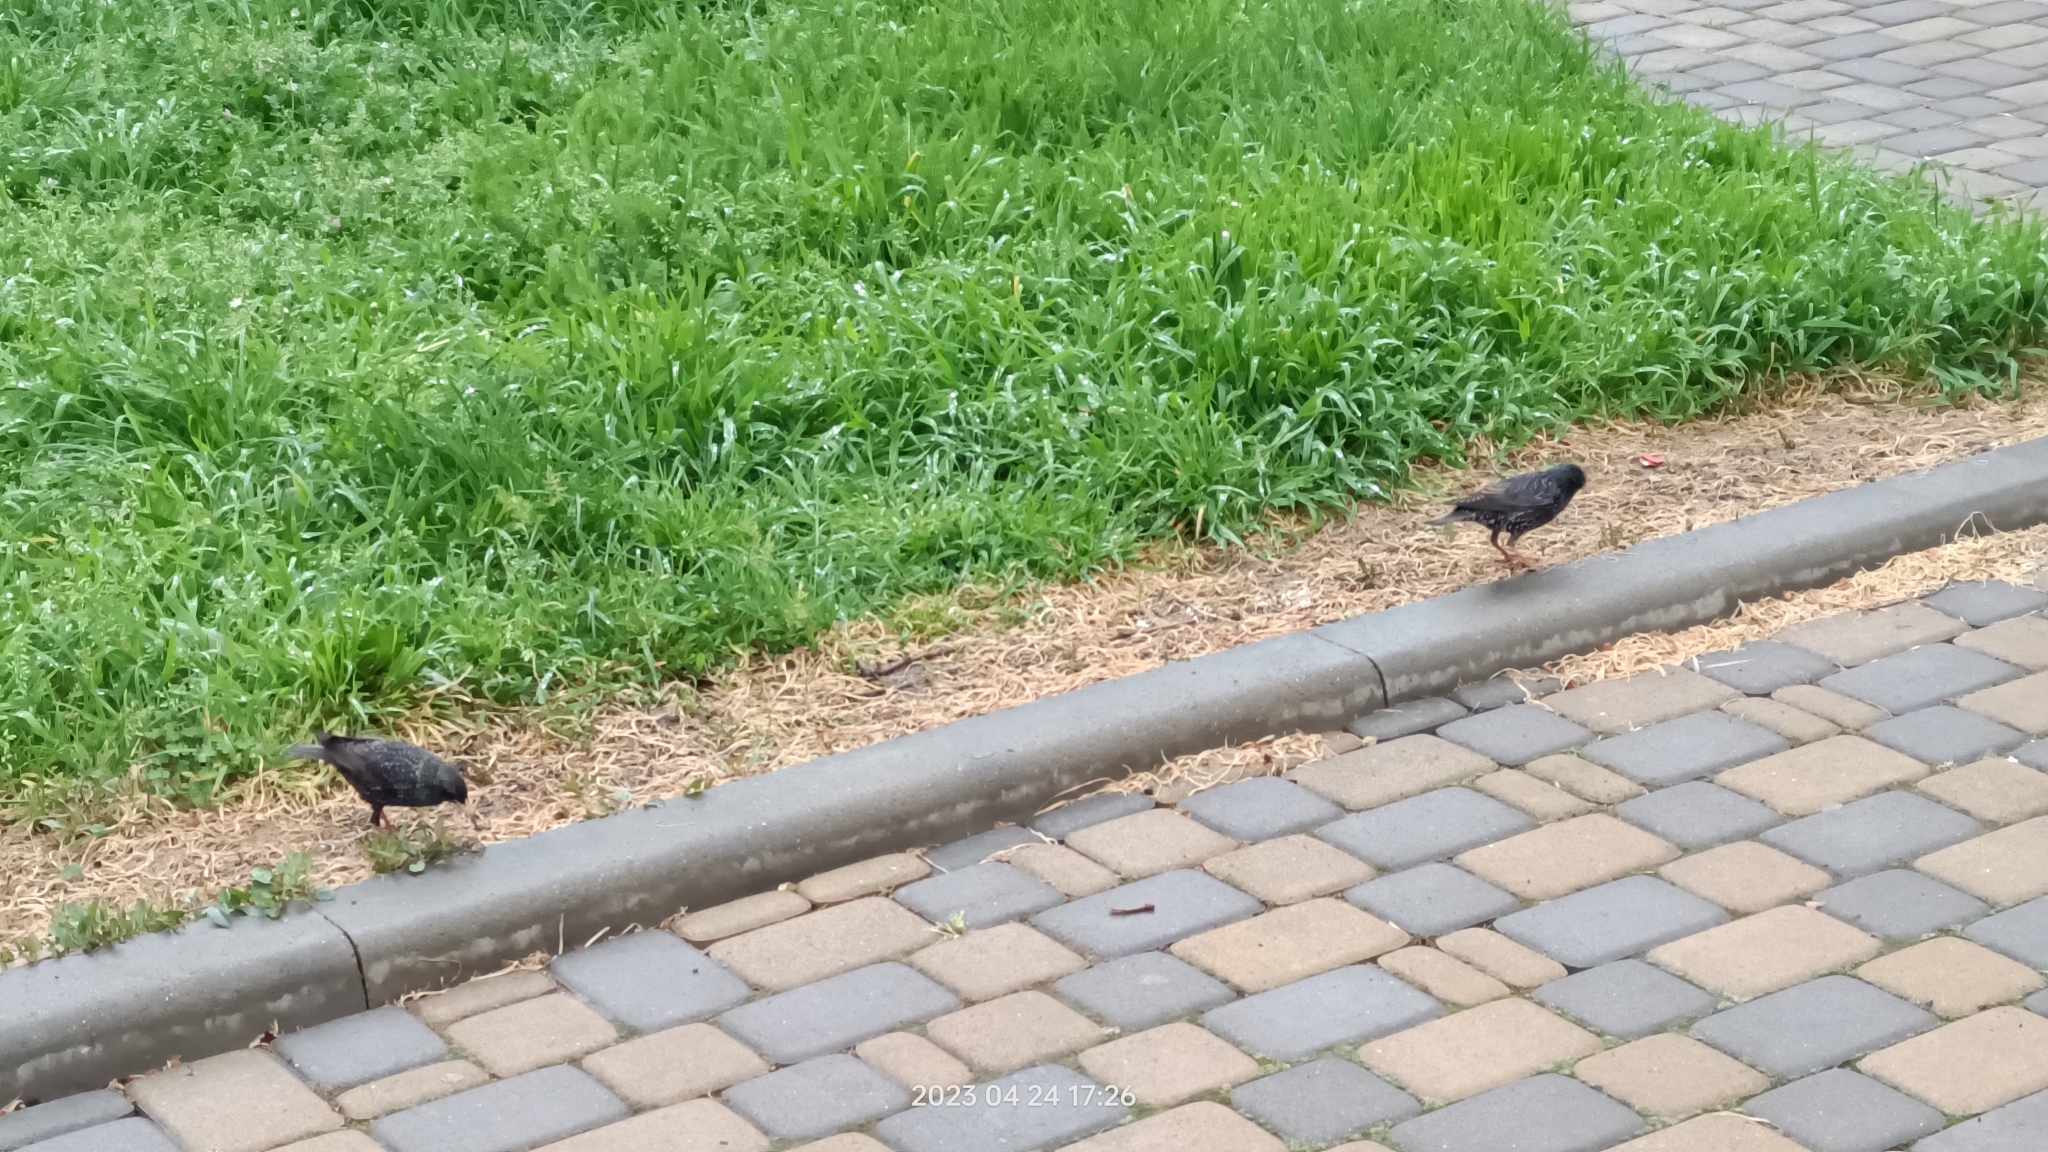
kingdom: Animalia
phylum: Chordata
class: Aves
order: Passeriformes
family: Sturnidae
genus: Sturnus
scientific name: Sturnus vulgaris
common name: Common starling
